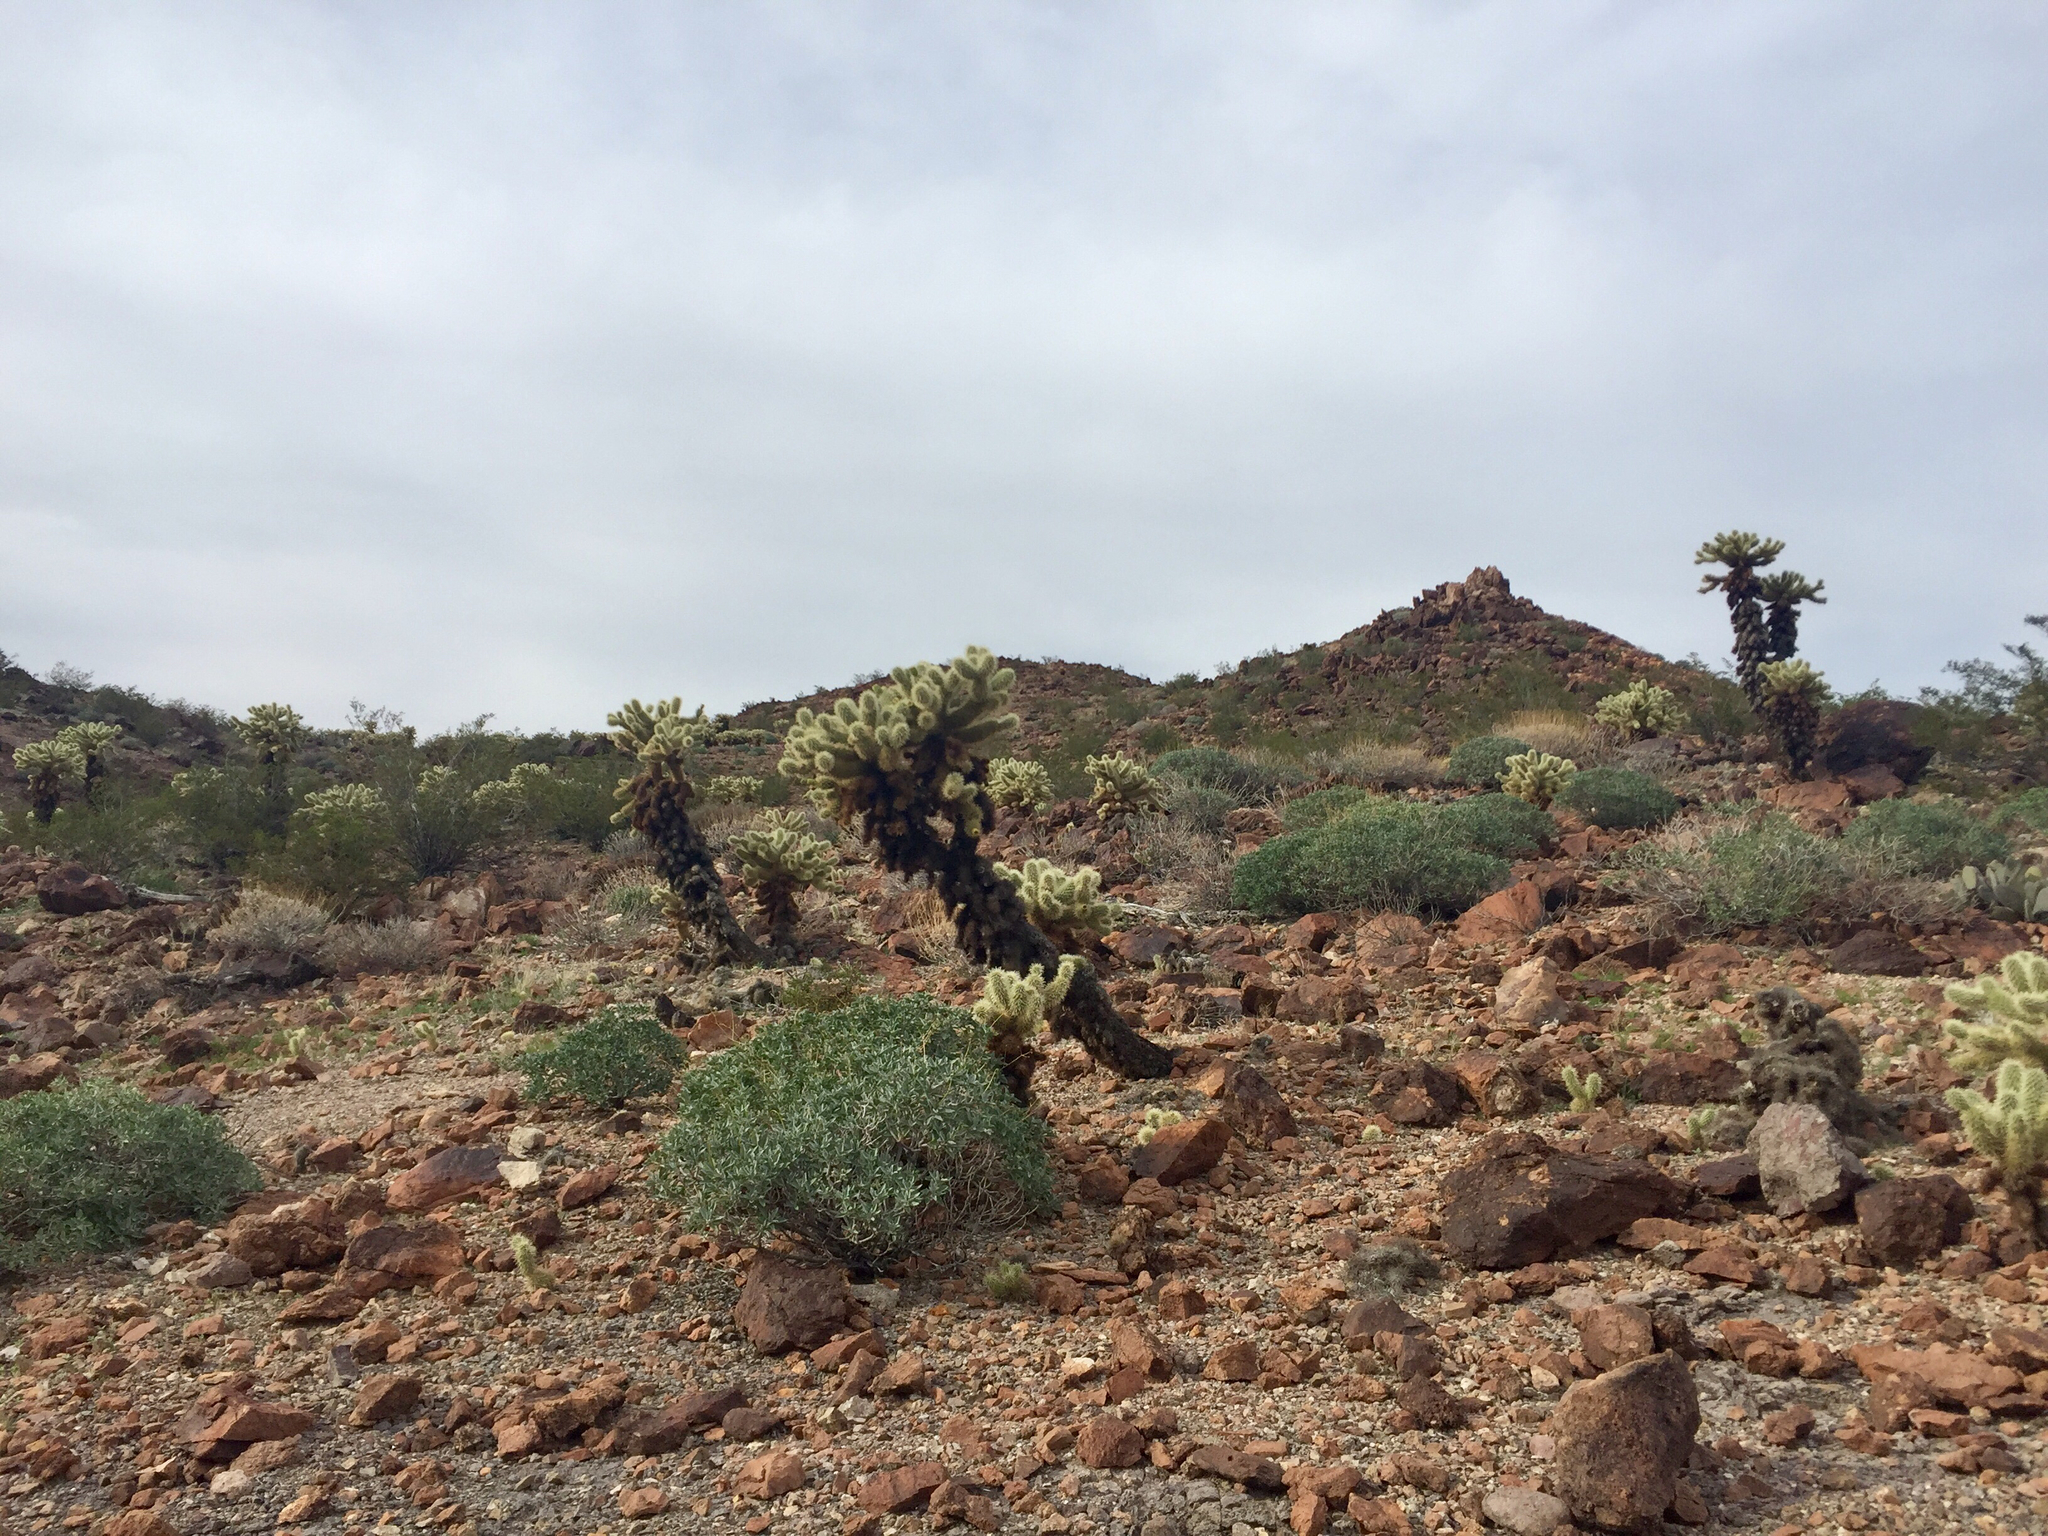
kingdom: Plantae
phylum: Tracheophyta
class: Magnoliopsida
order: Caryophyllales
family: Cactaceae
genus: Cylindropuntia
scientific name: Cylindropuntia fosbergii
